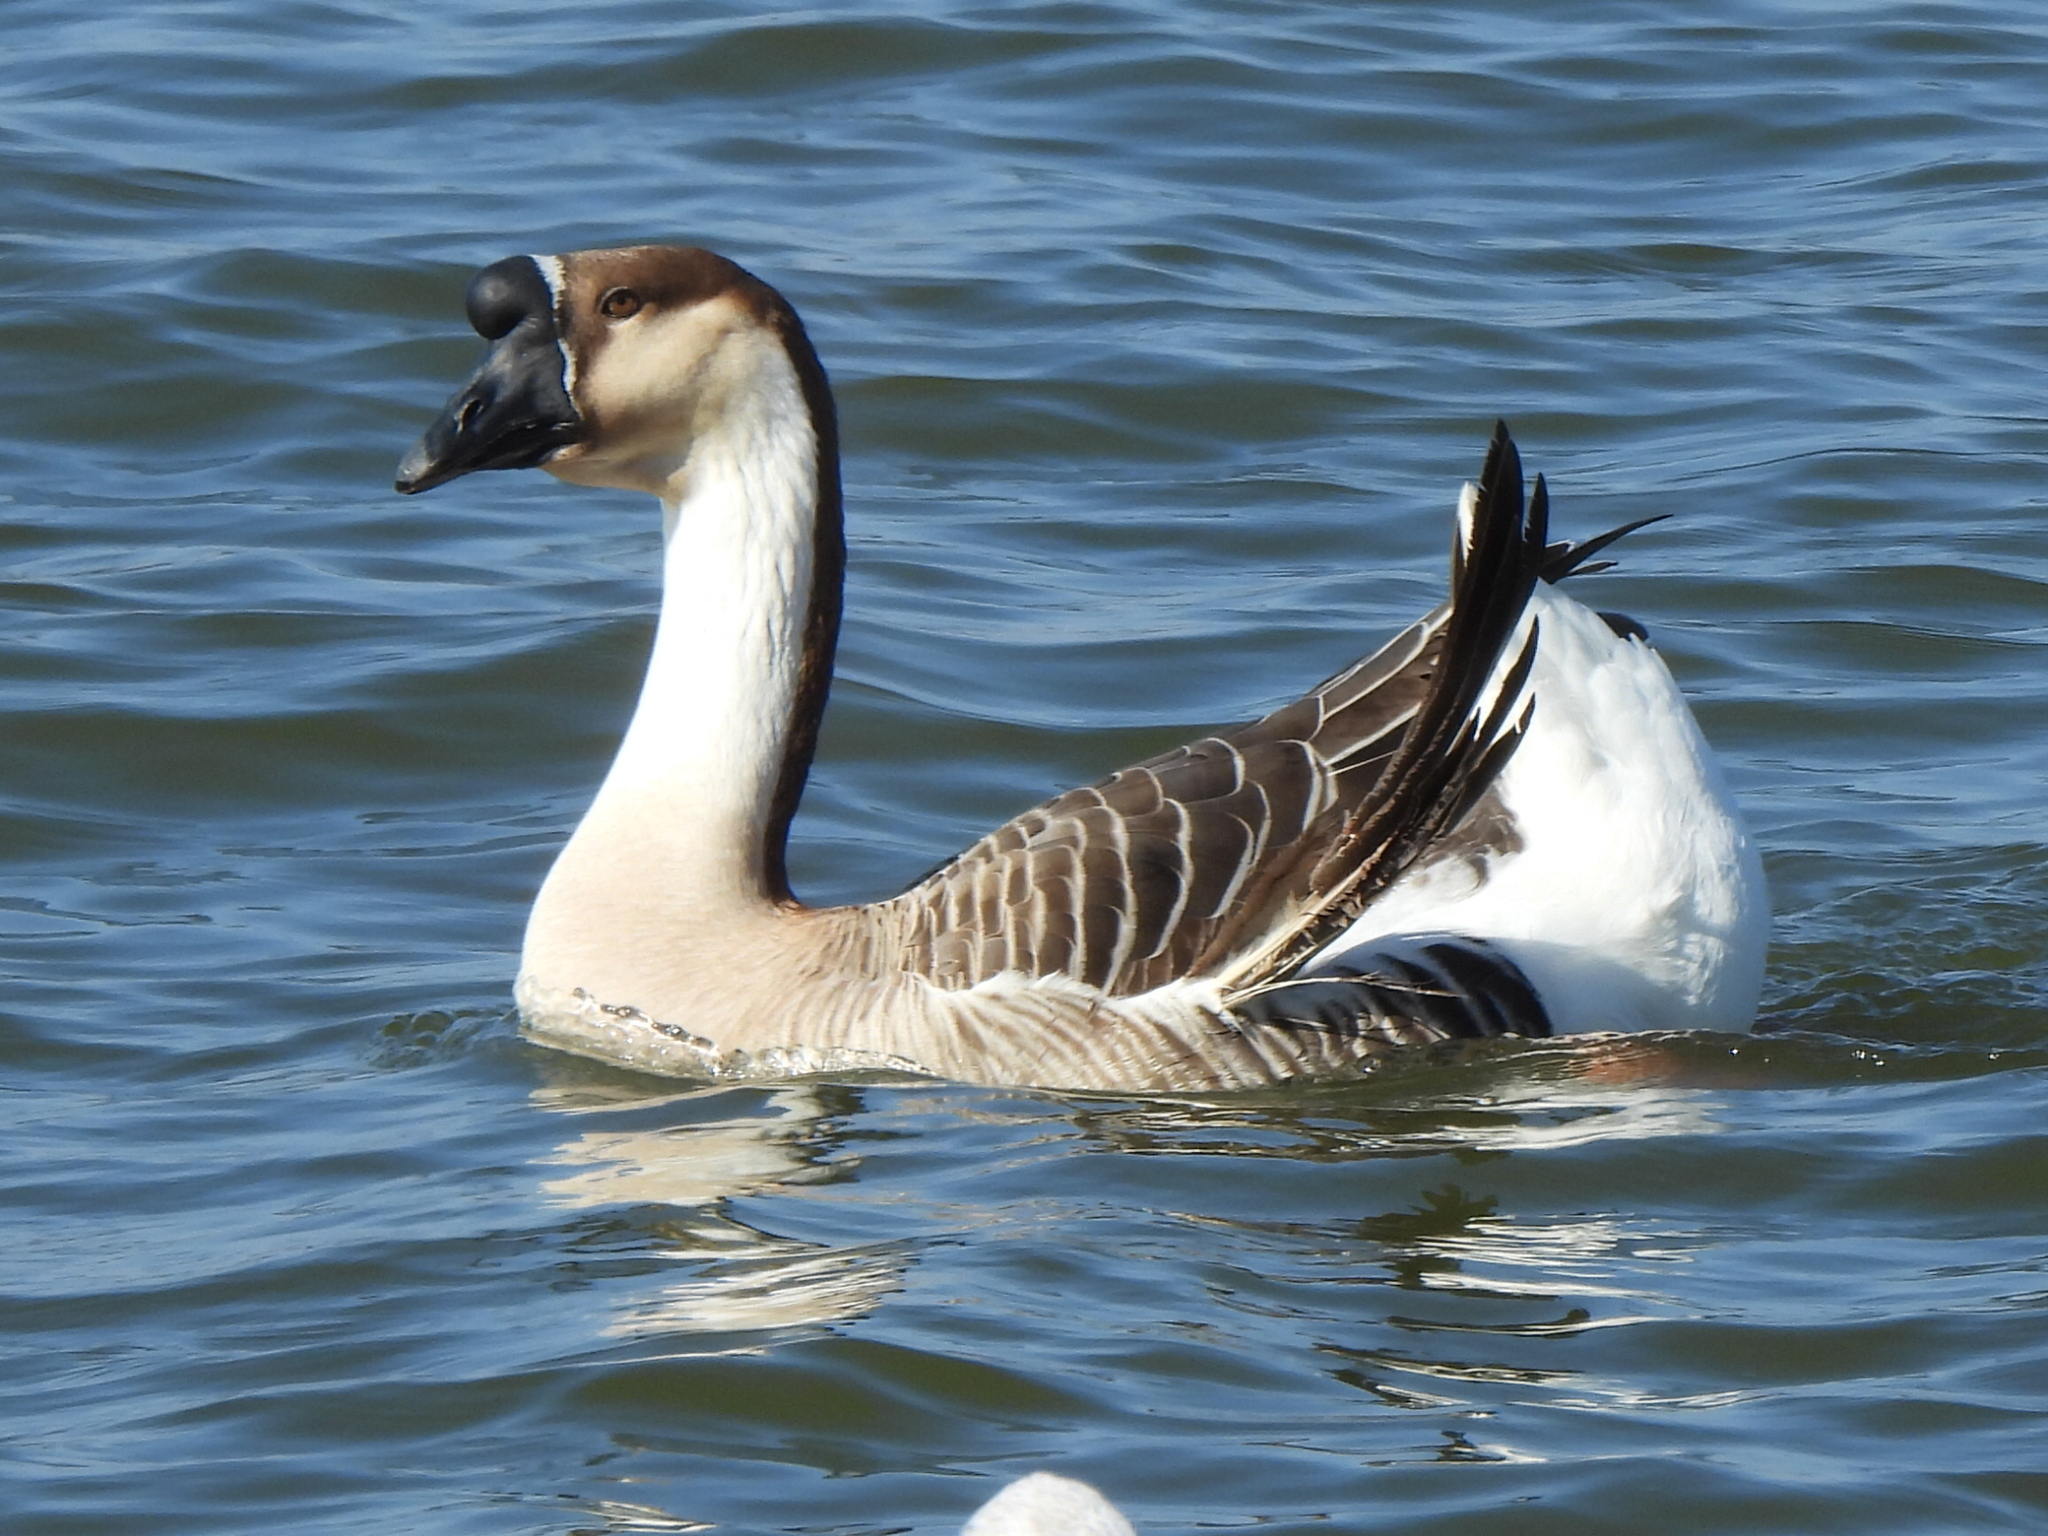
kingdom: Animalia
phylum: Chordata
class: Aves
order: Anseriformes
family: Anatidae
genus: Anser
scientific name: Anser cygnoides
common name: Swan goose
